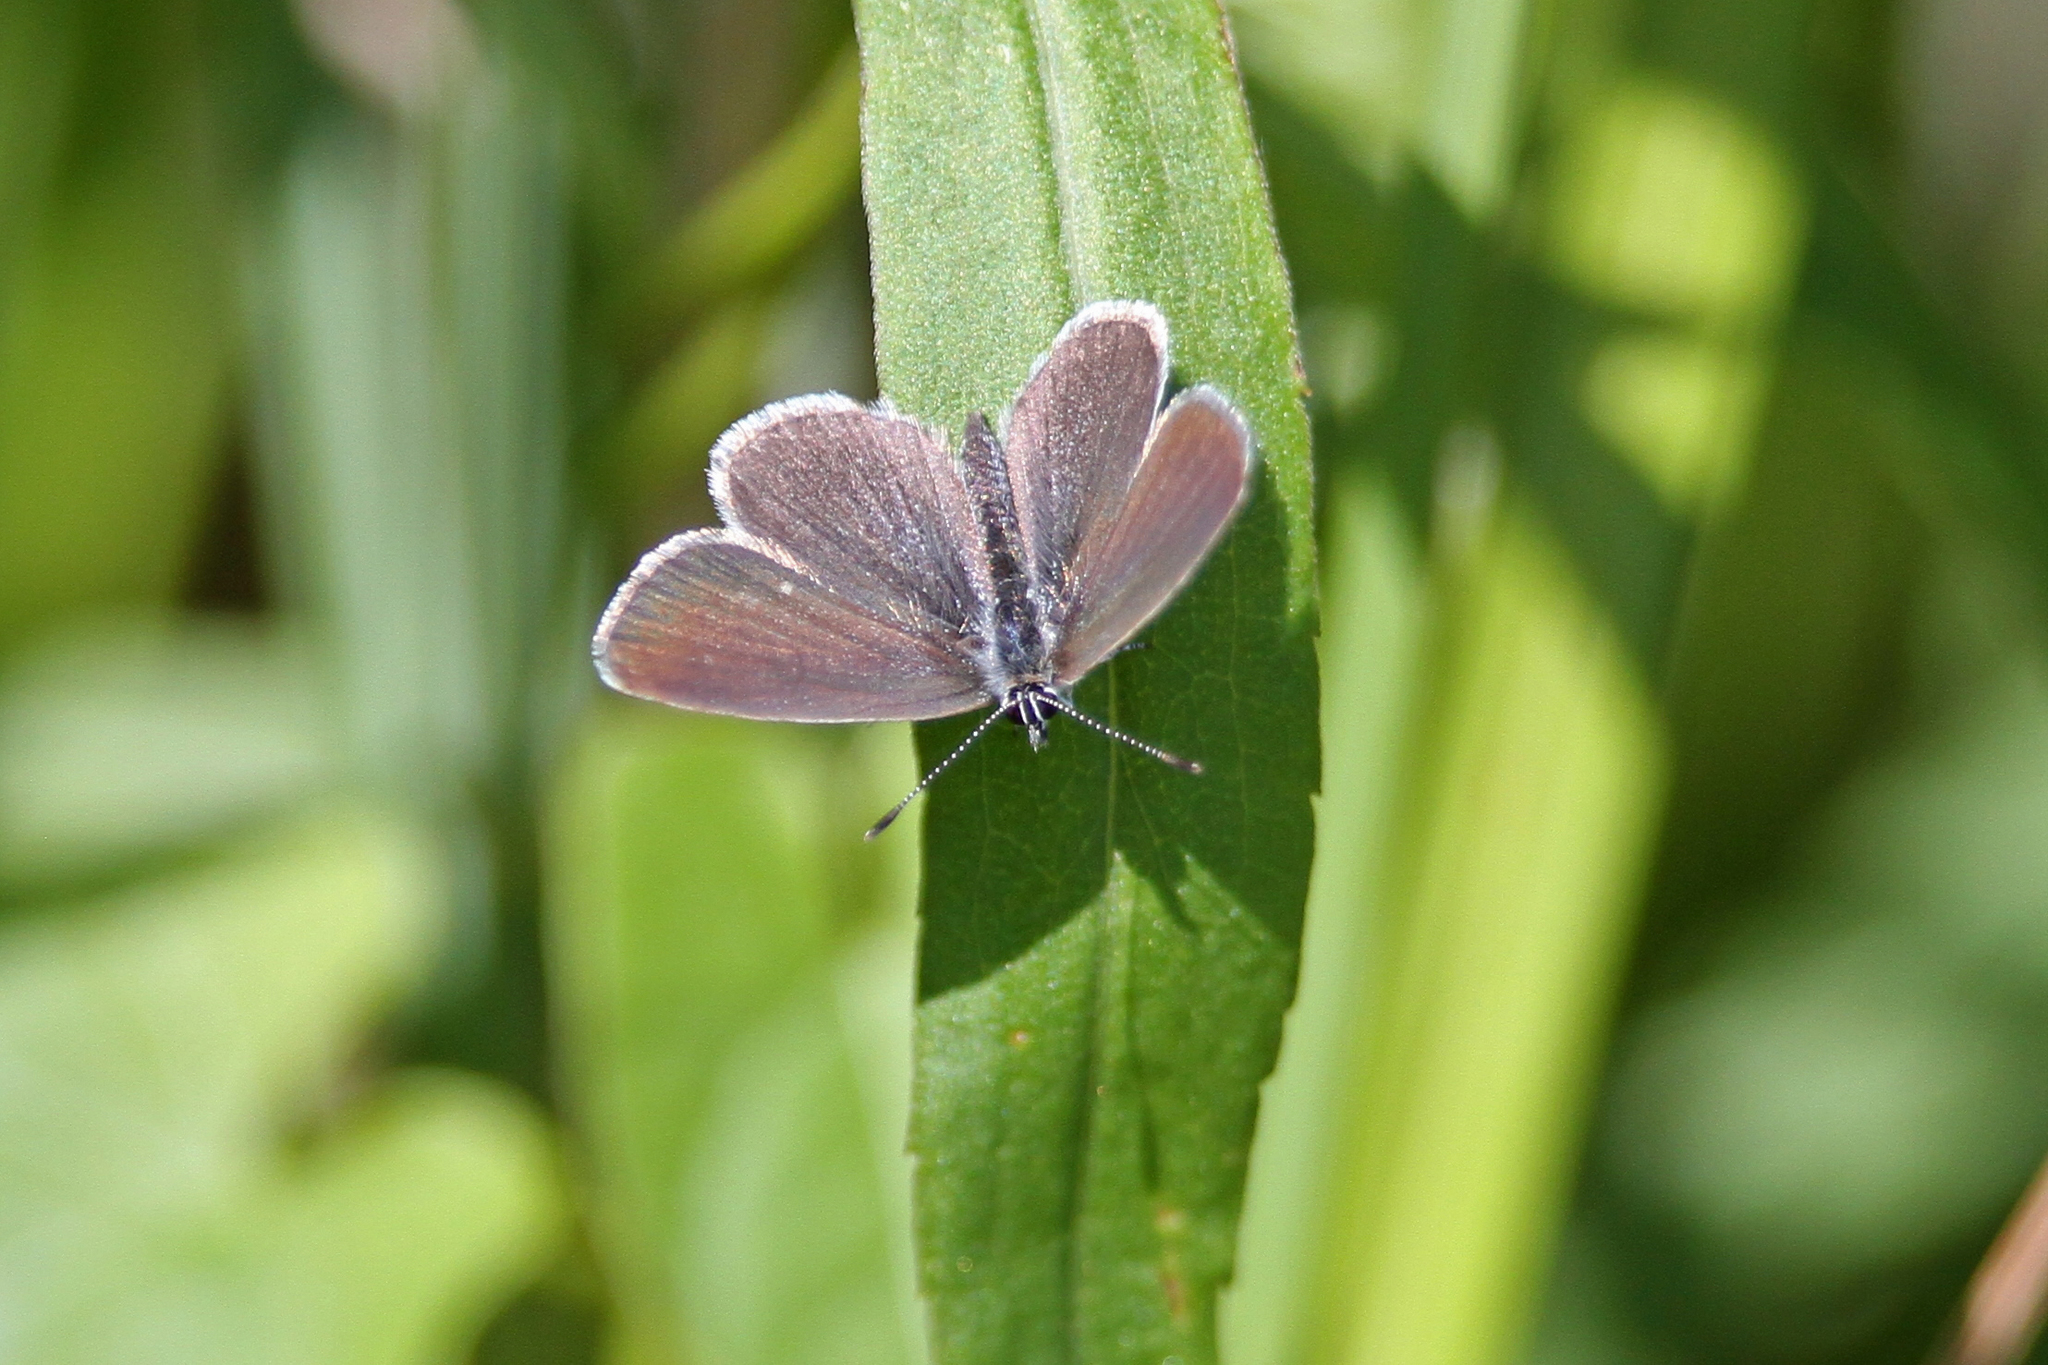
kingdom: Animalia
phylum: Arthropoda
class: Insecta
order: Lepidoptera
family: Lycaenidae
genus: Cupido
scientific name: Cupido minimus
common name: Small blue
